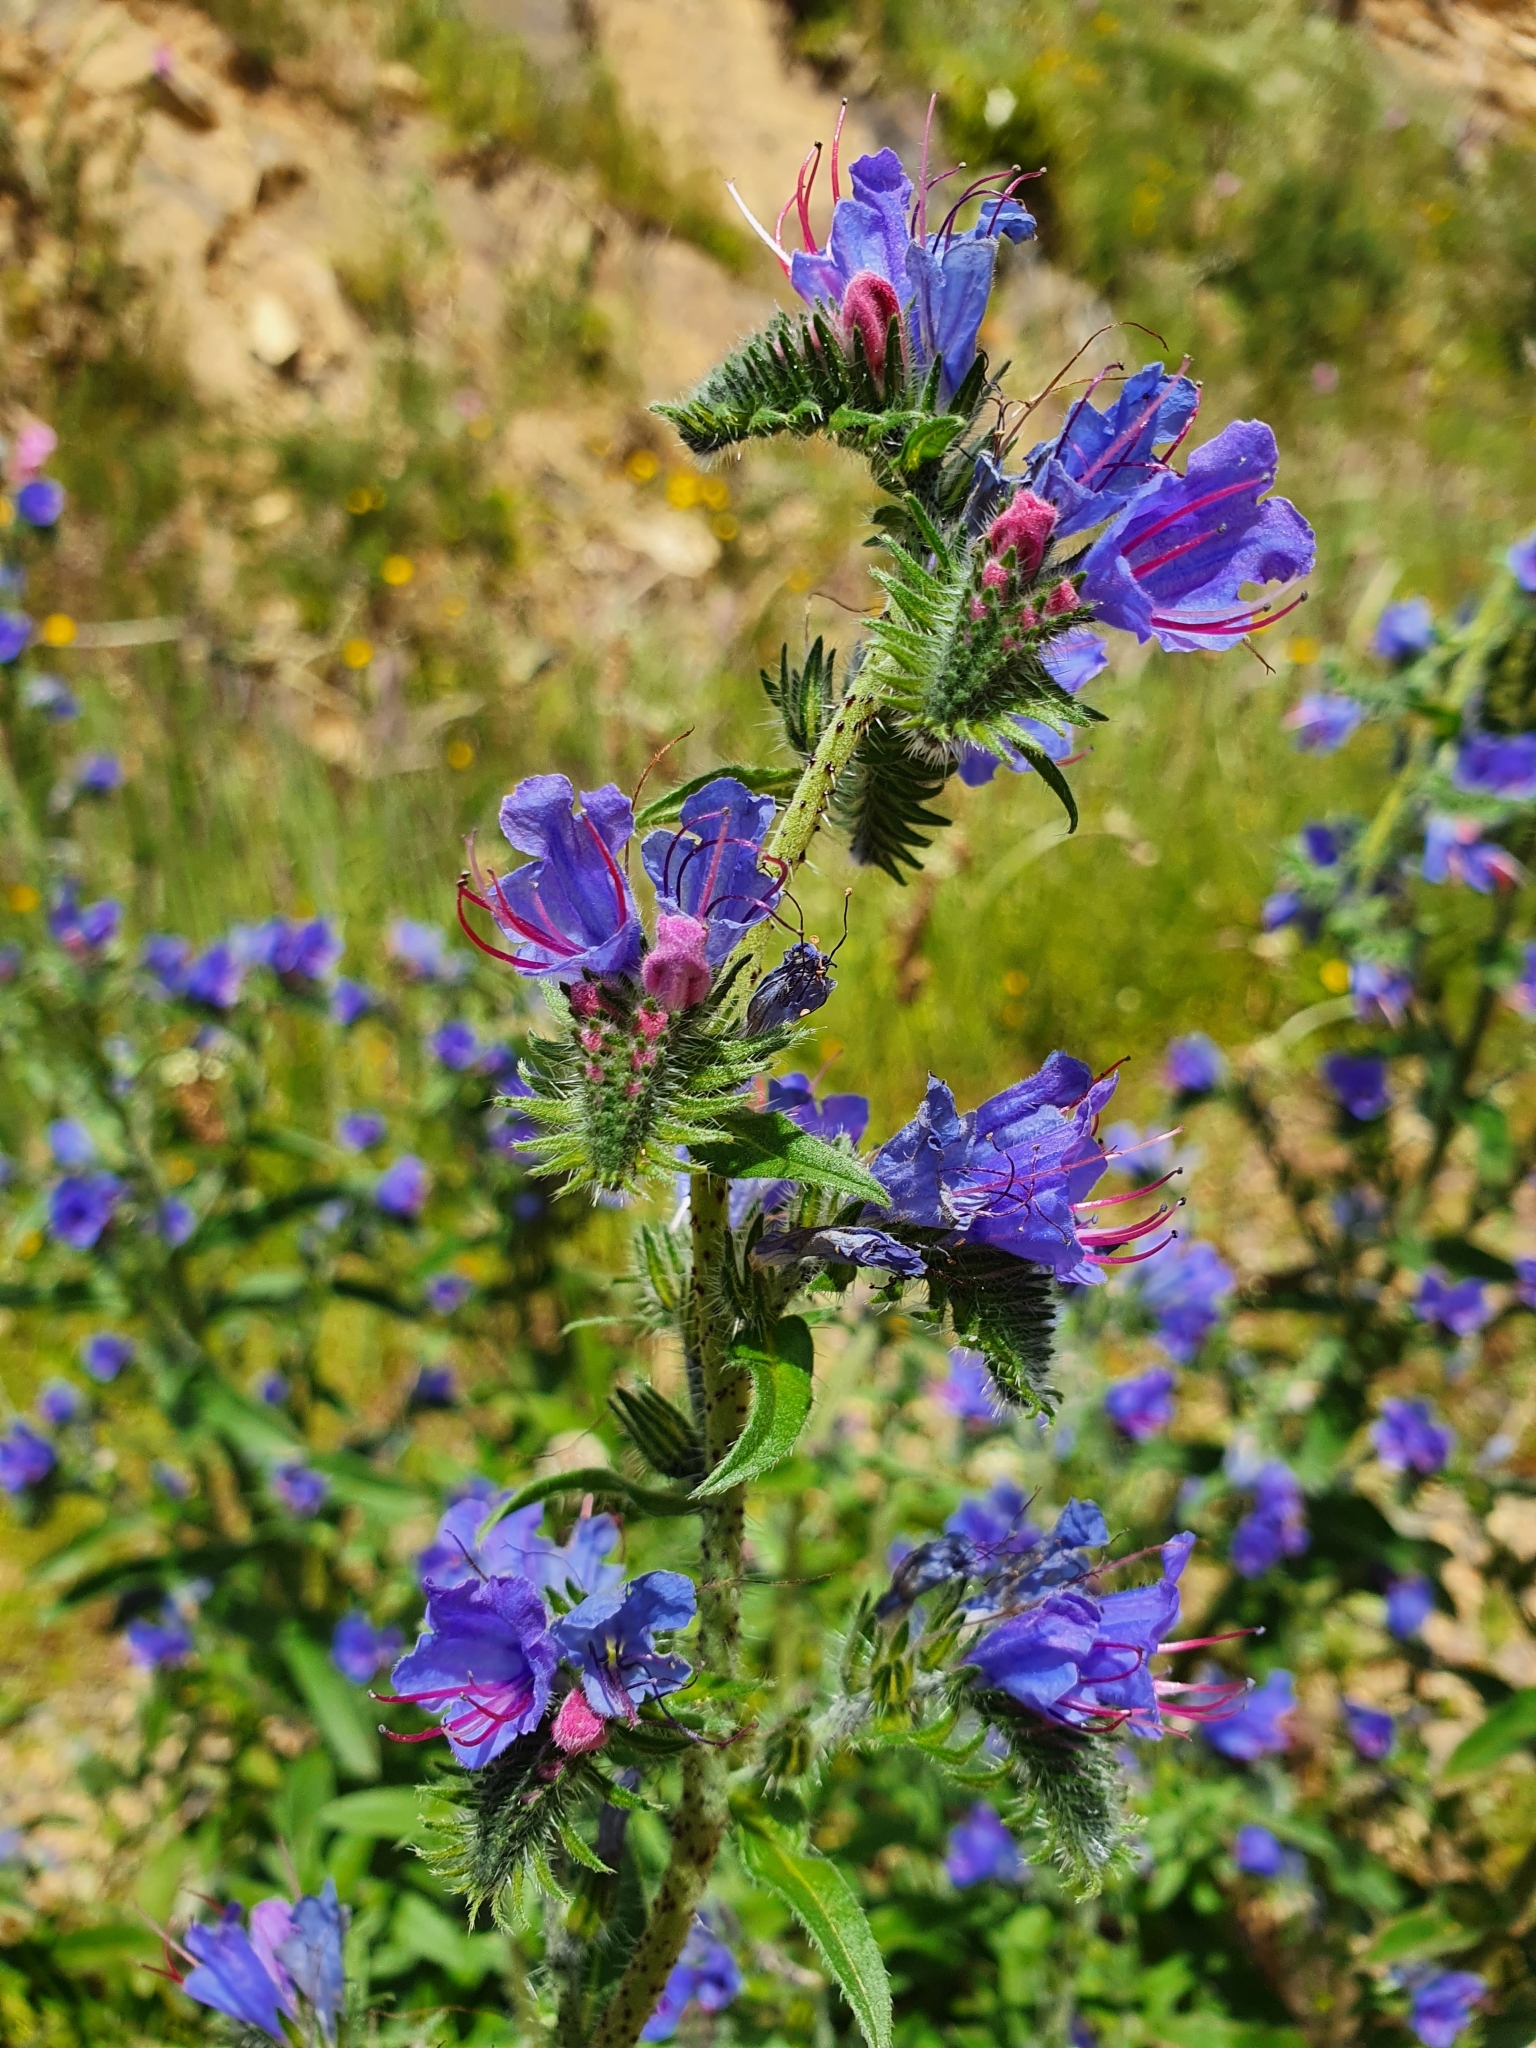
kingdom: Plantae
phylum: Tracheophyta
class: Magnoliopsida
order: Boraginales
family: Boraginaceae
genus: Echium
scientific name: Echium vulgare
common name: Common viper's bugloss
